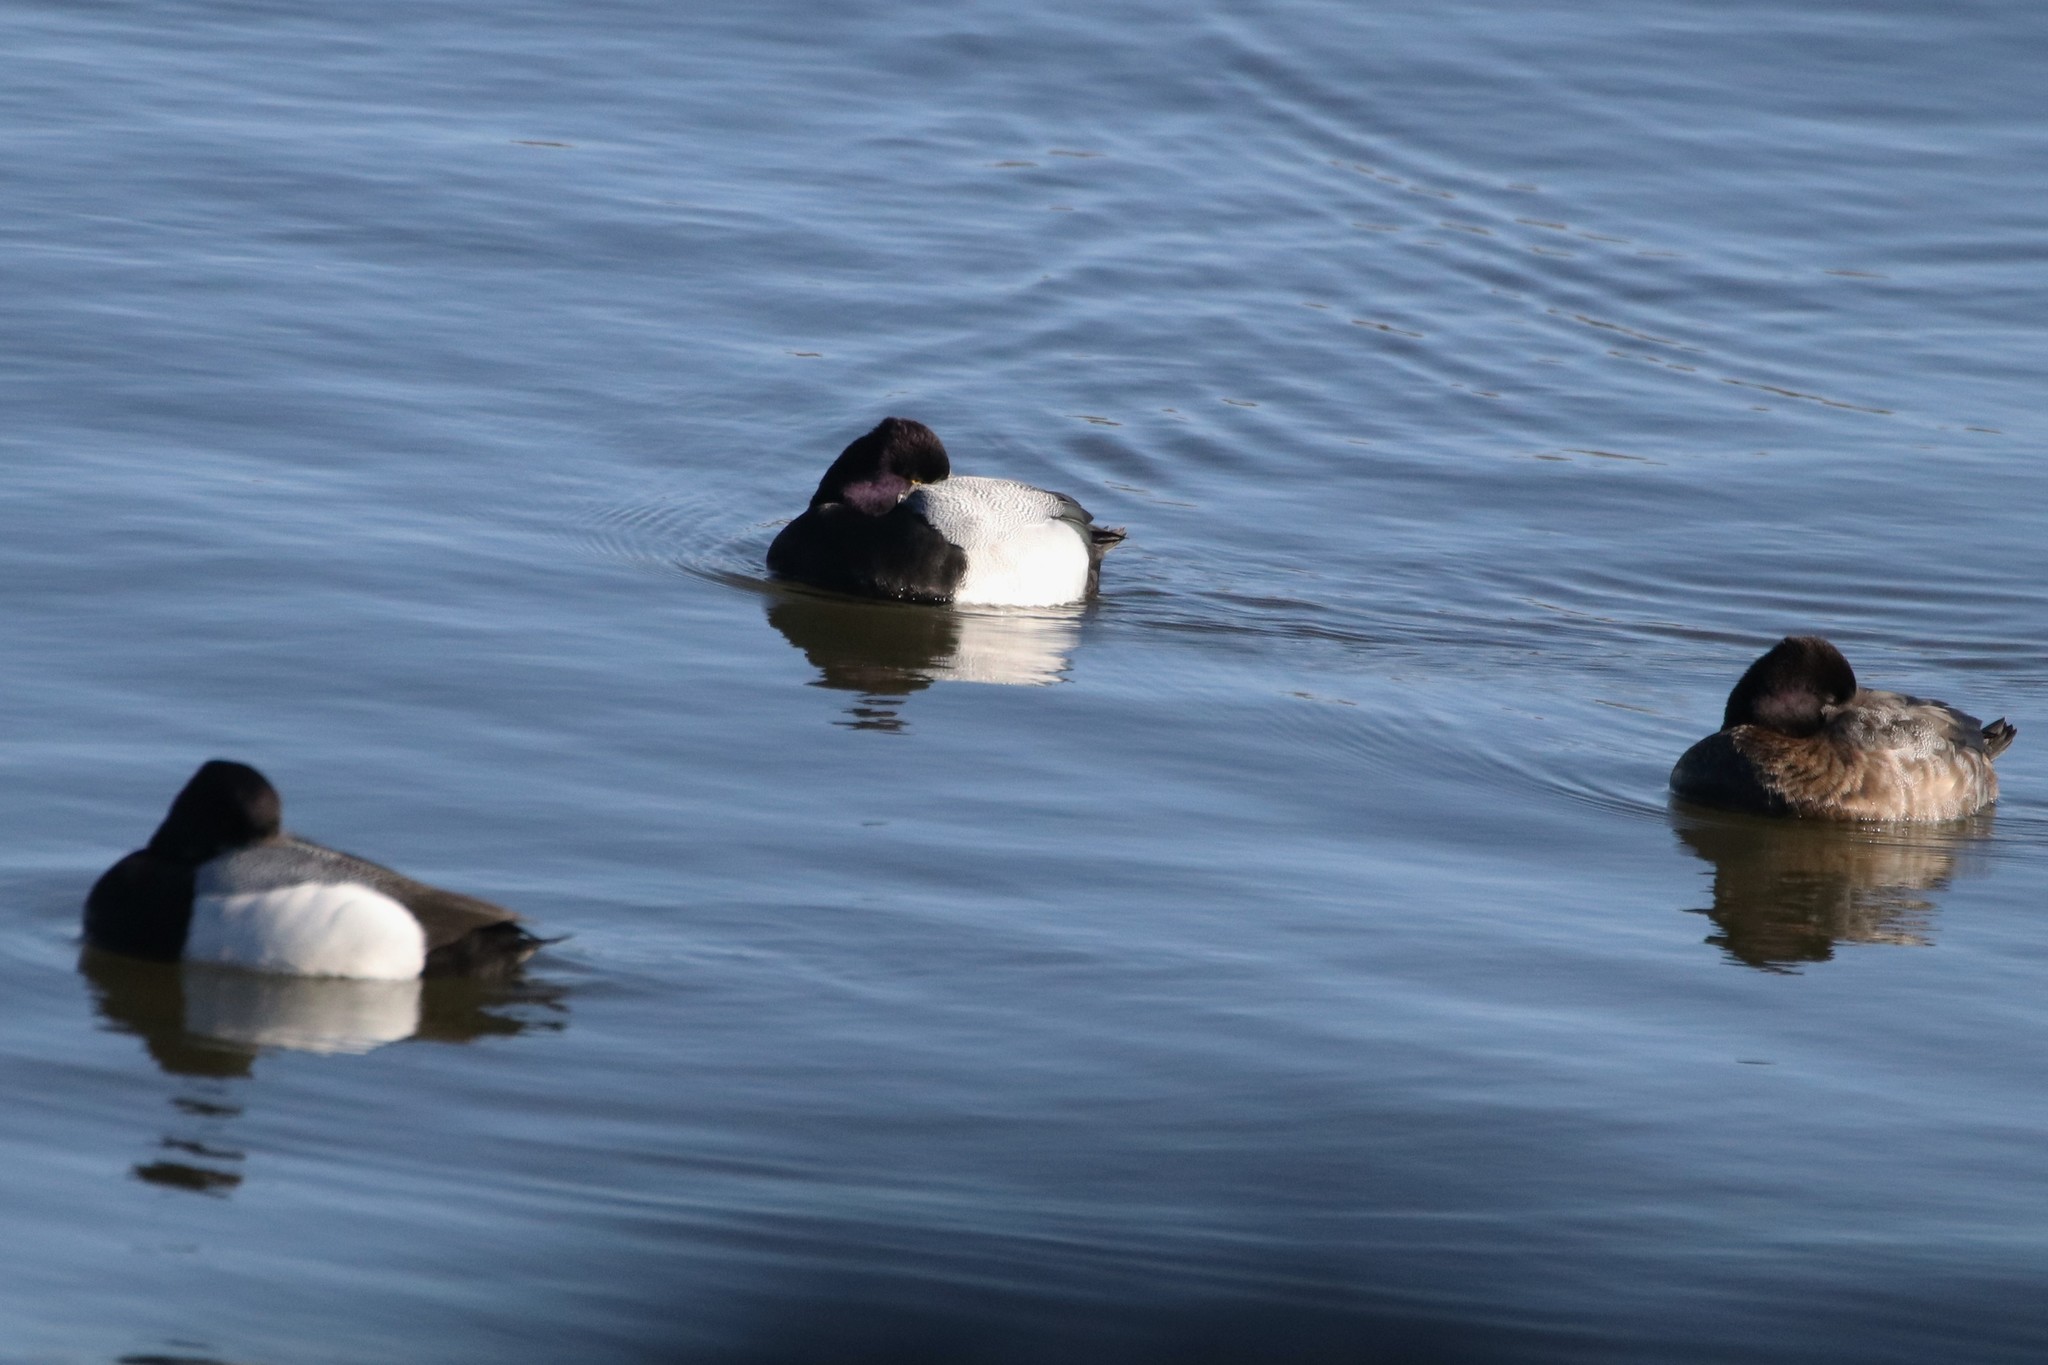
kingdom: Animalia
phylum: Chordata
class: Aves
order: Anseriformes
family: Anatidae
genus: Aythya
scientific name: Aythya affinis
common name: Lesser scaup
